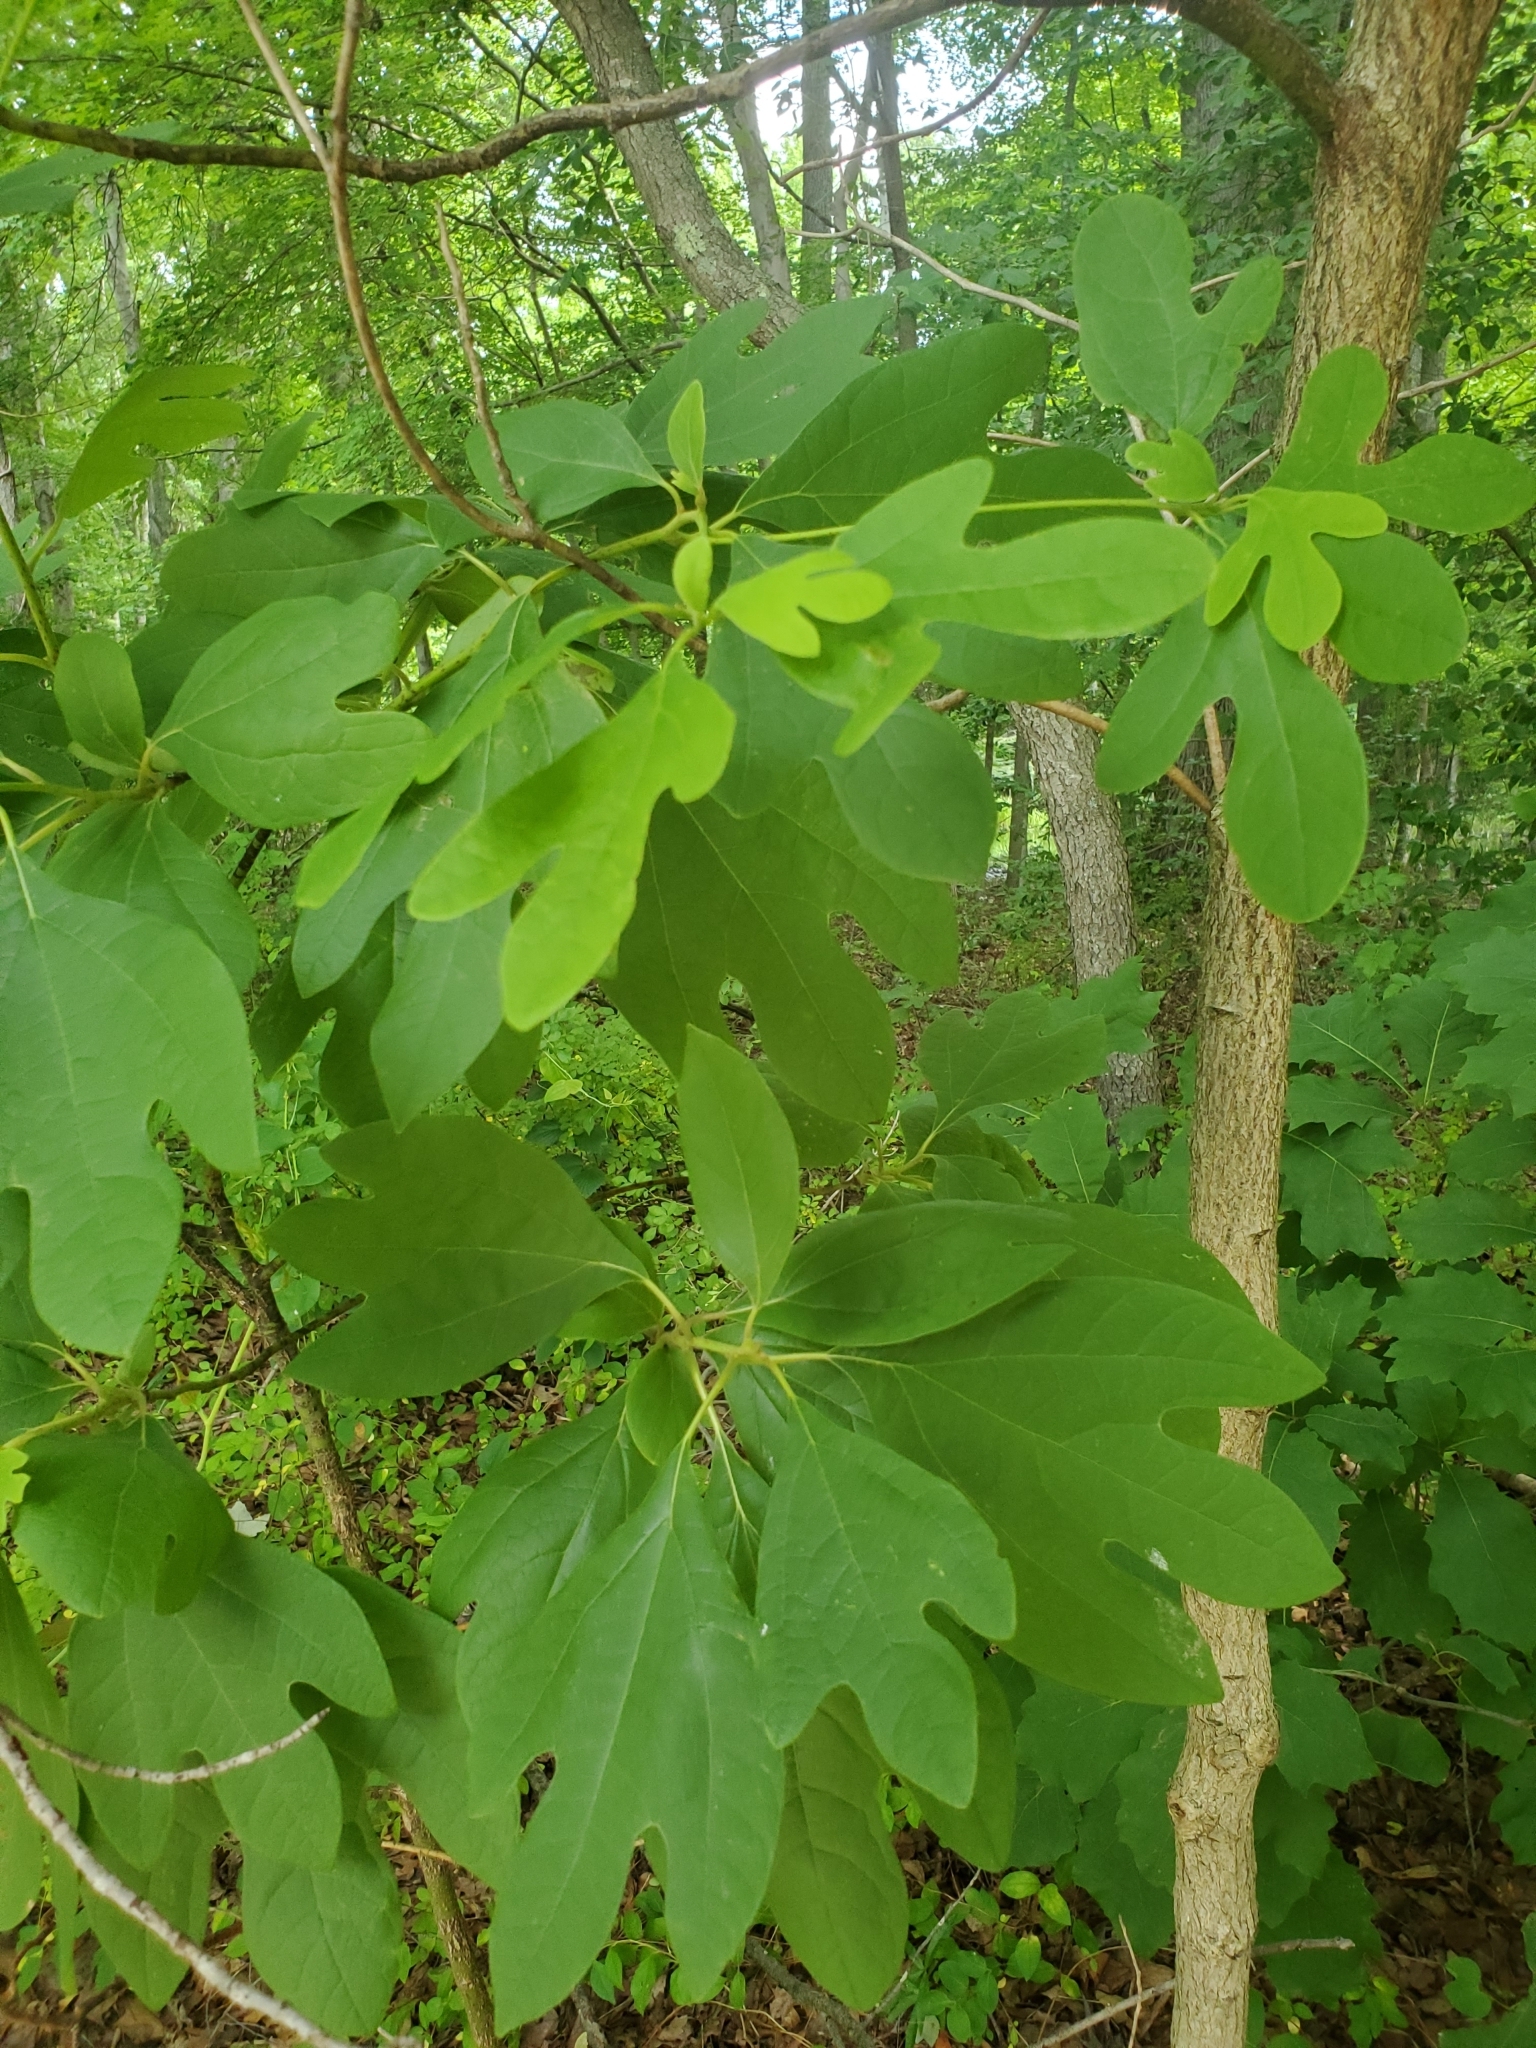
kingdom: Plantae
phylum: Tracheophyta
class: Magnoliopsida
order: Laurales
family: Lauraceae
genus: Sassafras
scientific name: Sassafras albidum
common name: Sassafras
